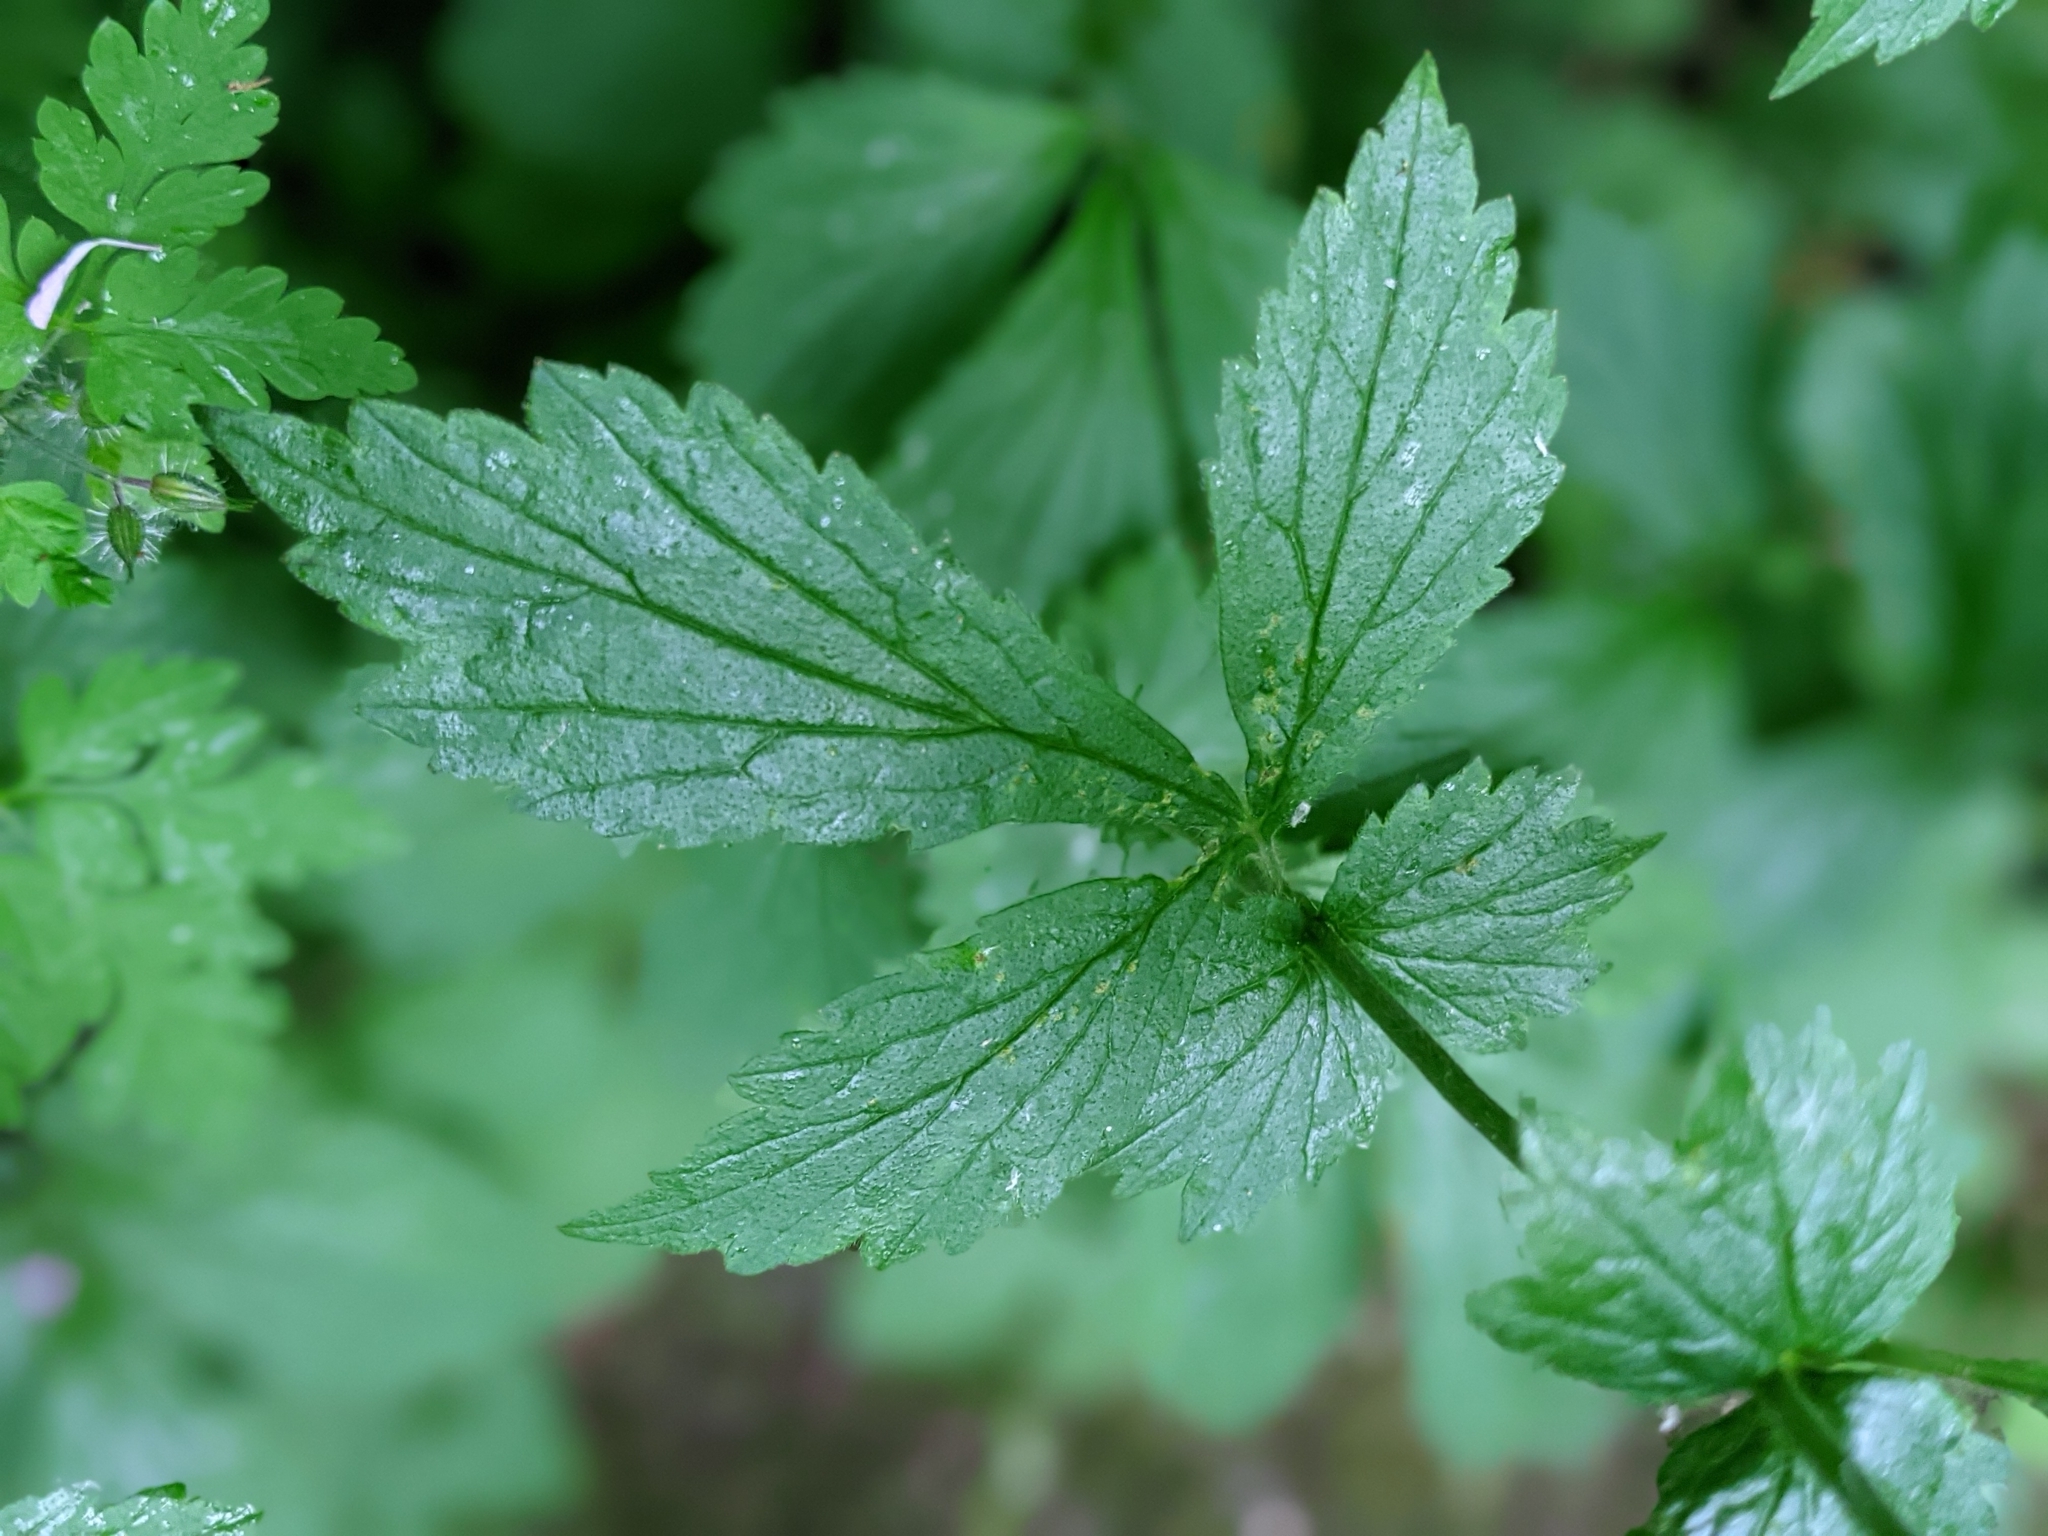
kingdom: Plantae
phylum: Tracheophyta
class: Magnoliopsida
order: Rosales
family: Rosaceae
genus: Geum
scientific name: Geum urbanum
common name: Wood avens
